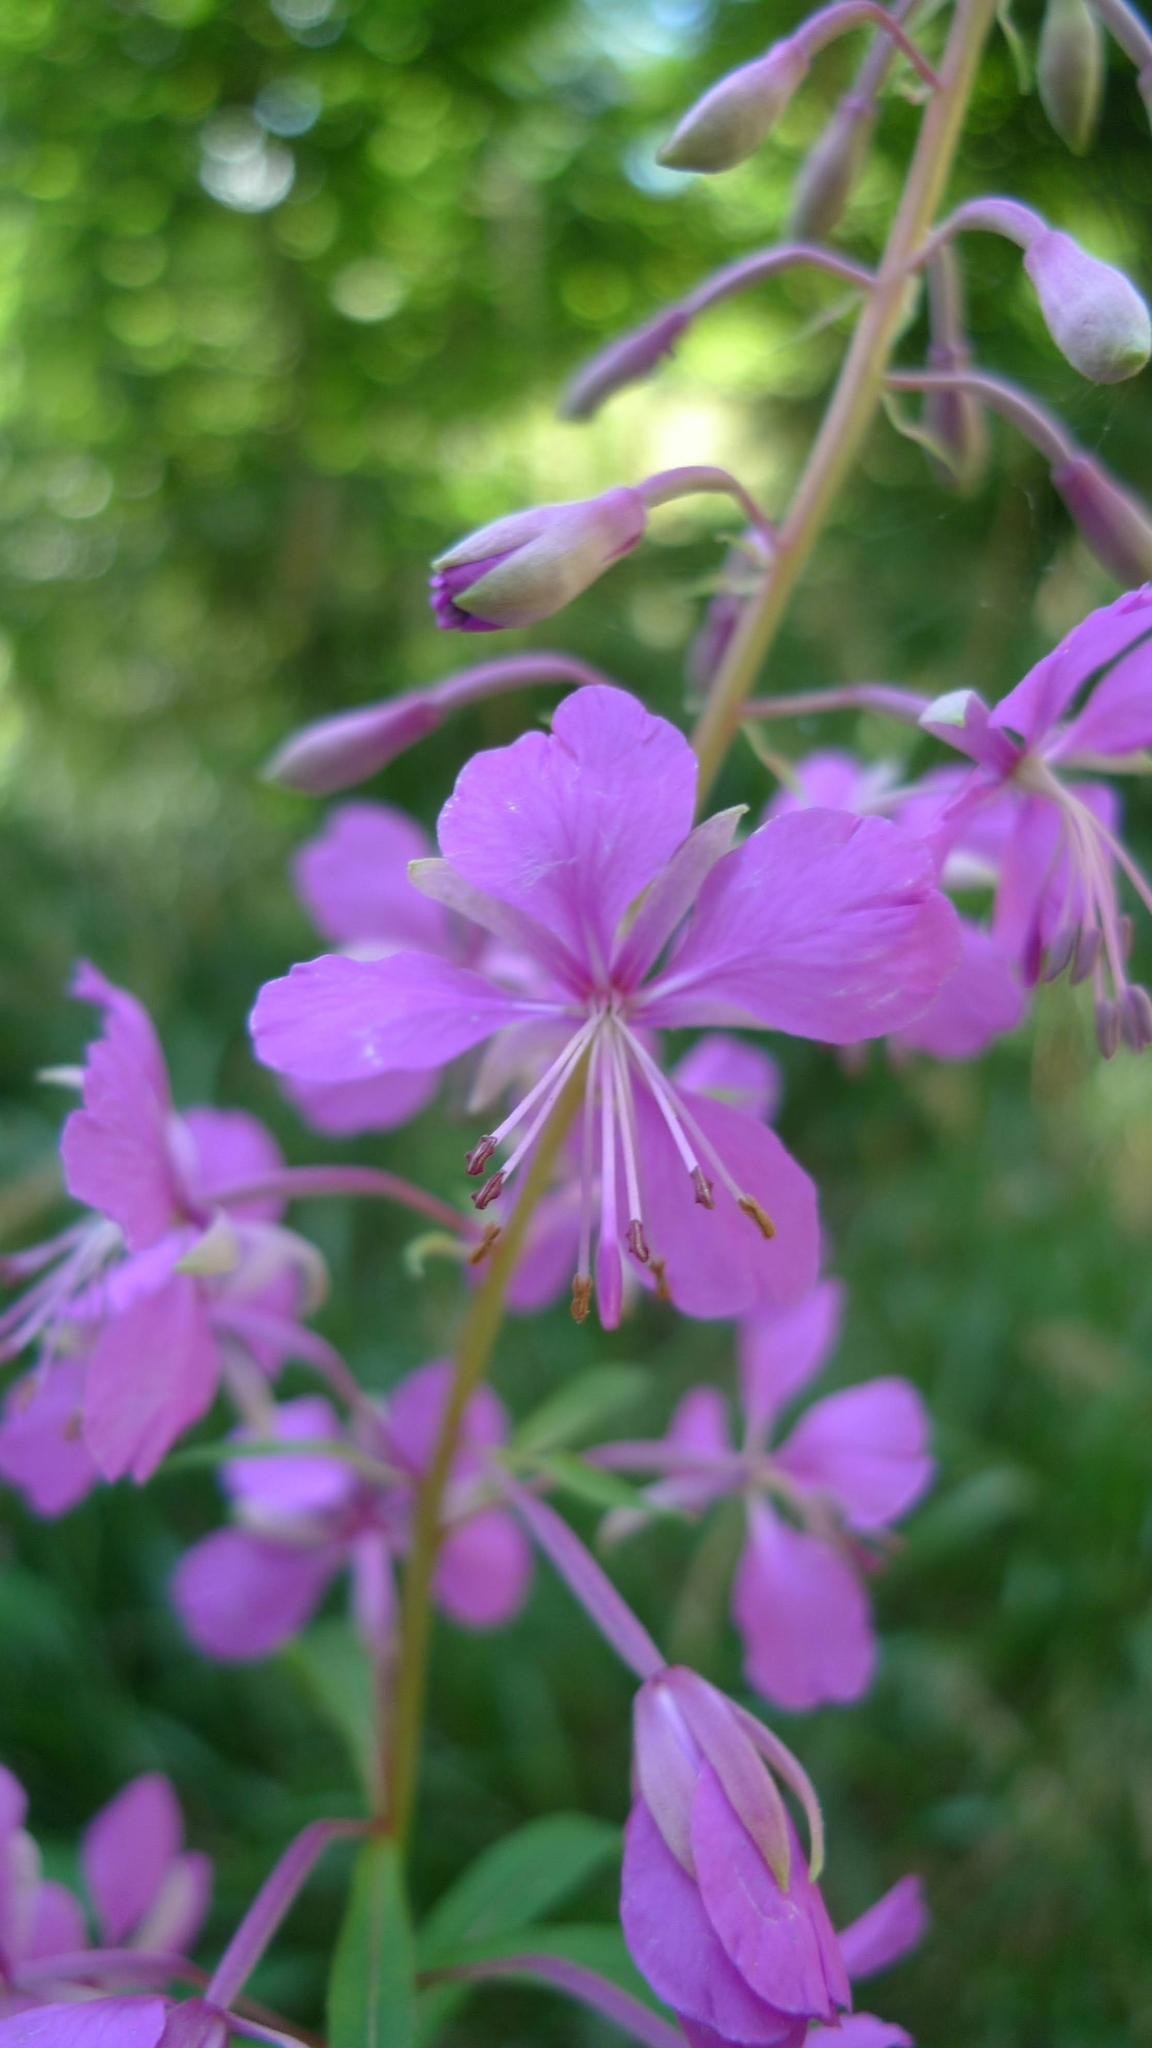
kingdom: Plantae
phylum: Tracheophyta
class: Magnoliopsida
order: Myrtales
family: Onagraceae
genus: Chamaenerion
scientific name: Chamaenerion angustifolium
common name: Fireweed
